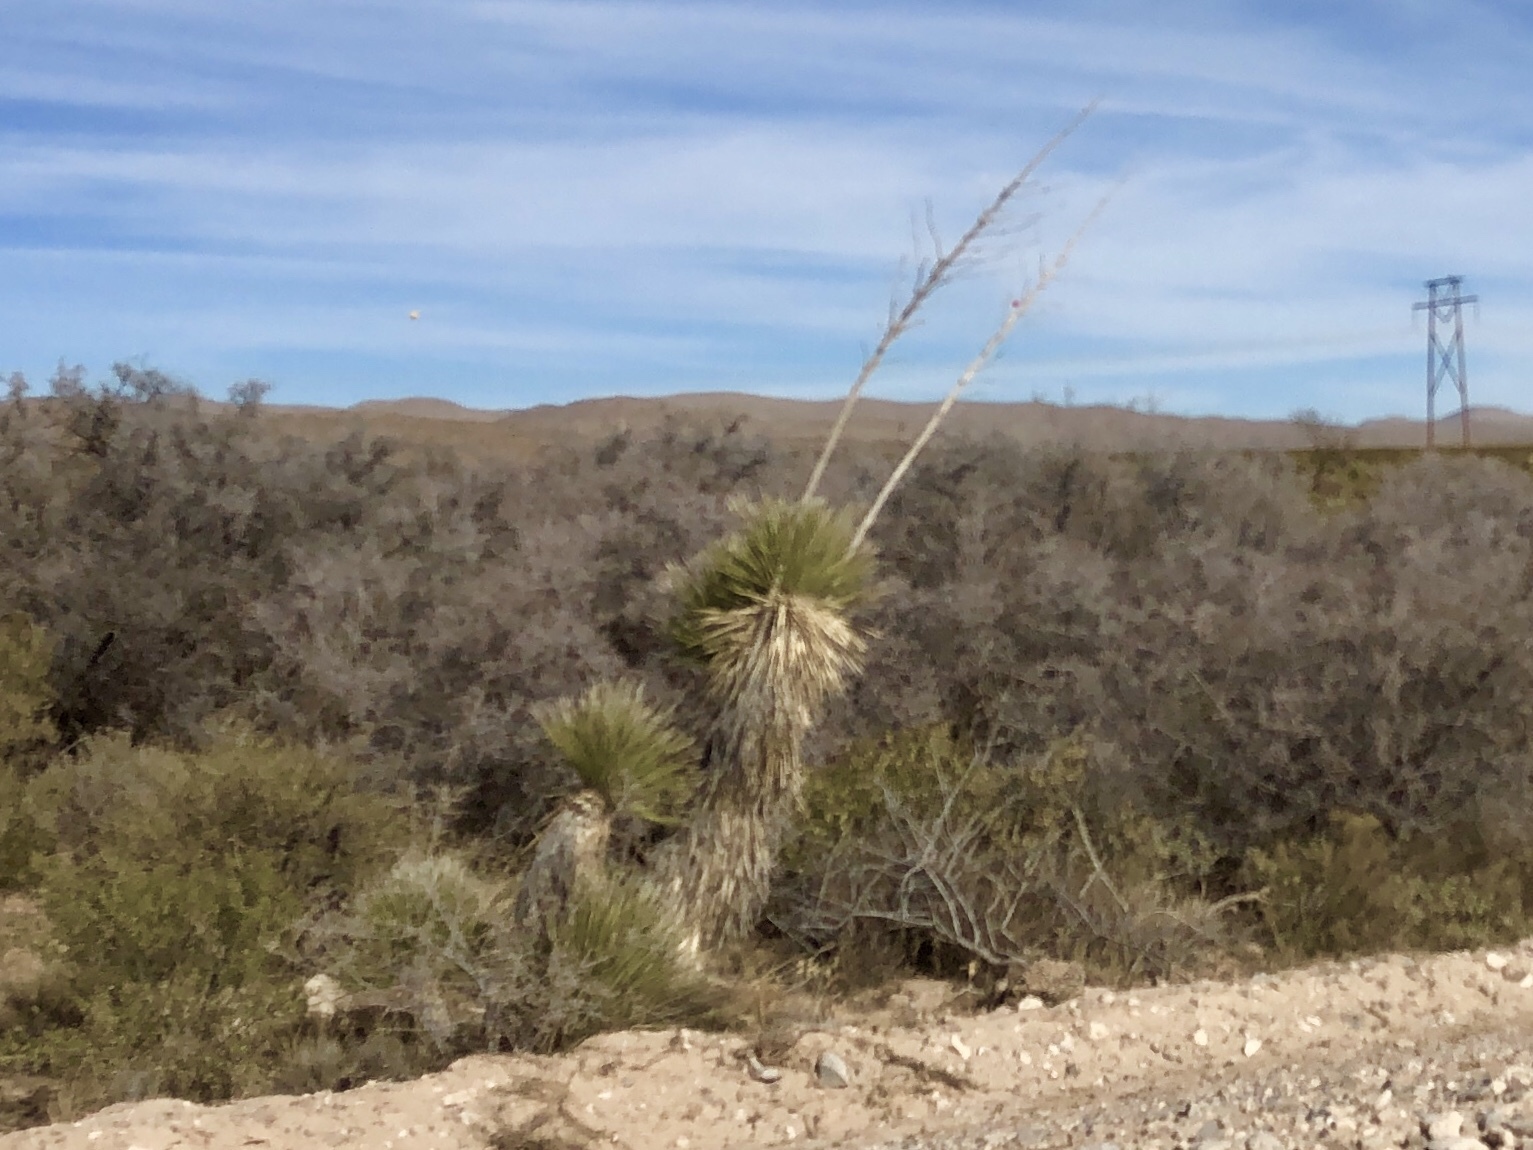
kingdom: Plantae
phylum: Tracheophyta
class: Liliopsida
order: Asparagales
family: Asparagaceae
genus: Yucca
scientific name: Yucca elata
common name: Palmella
